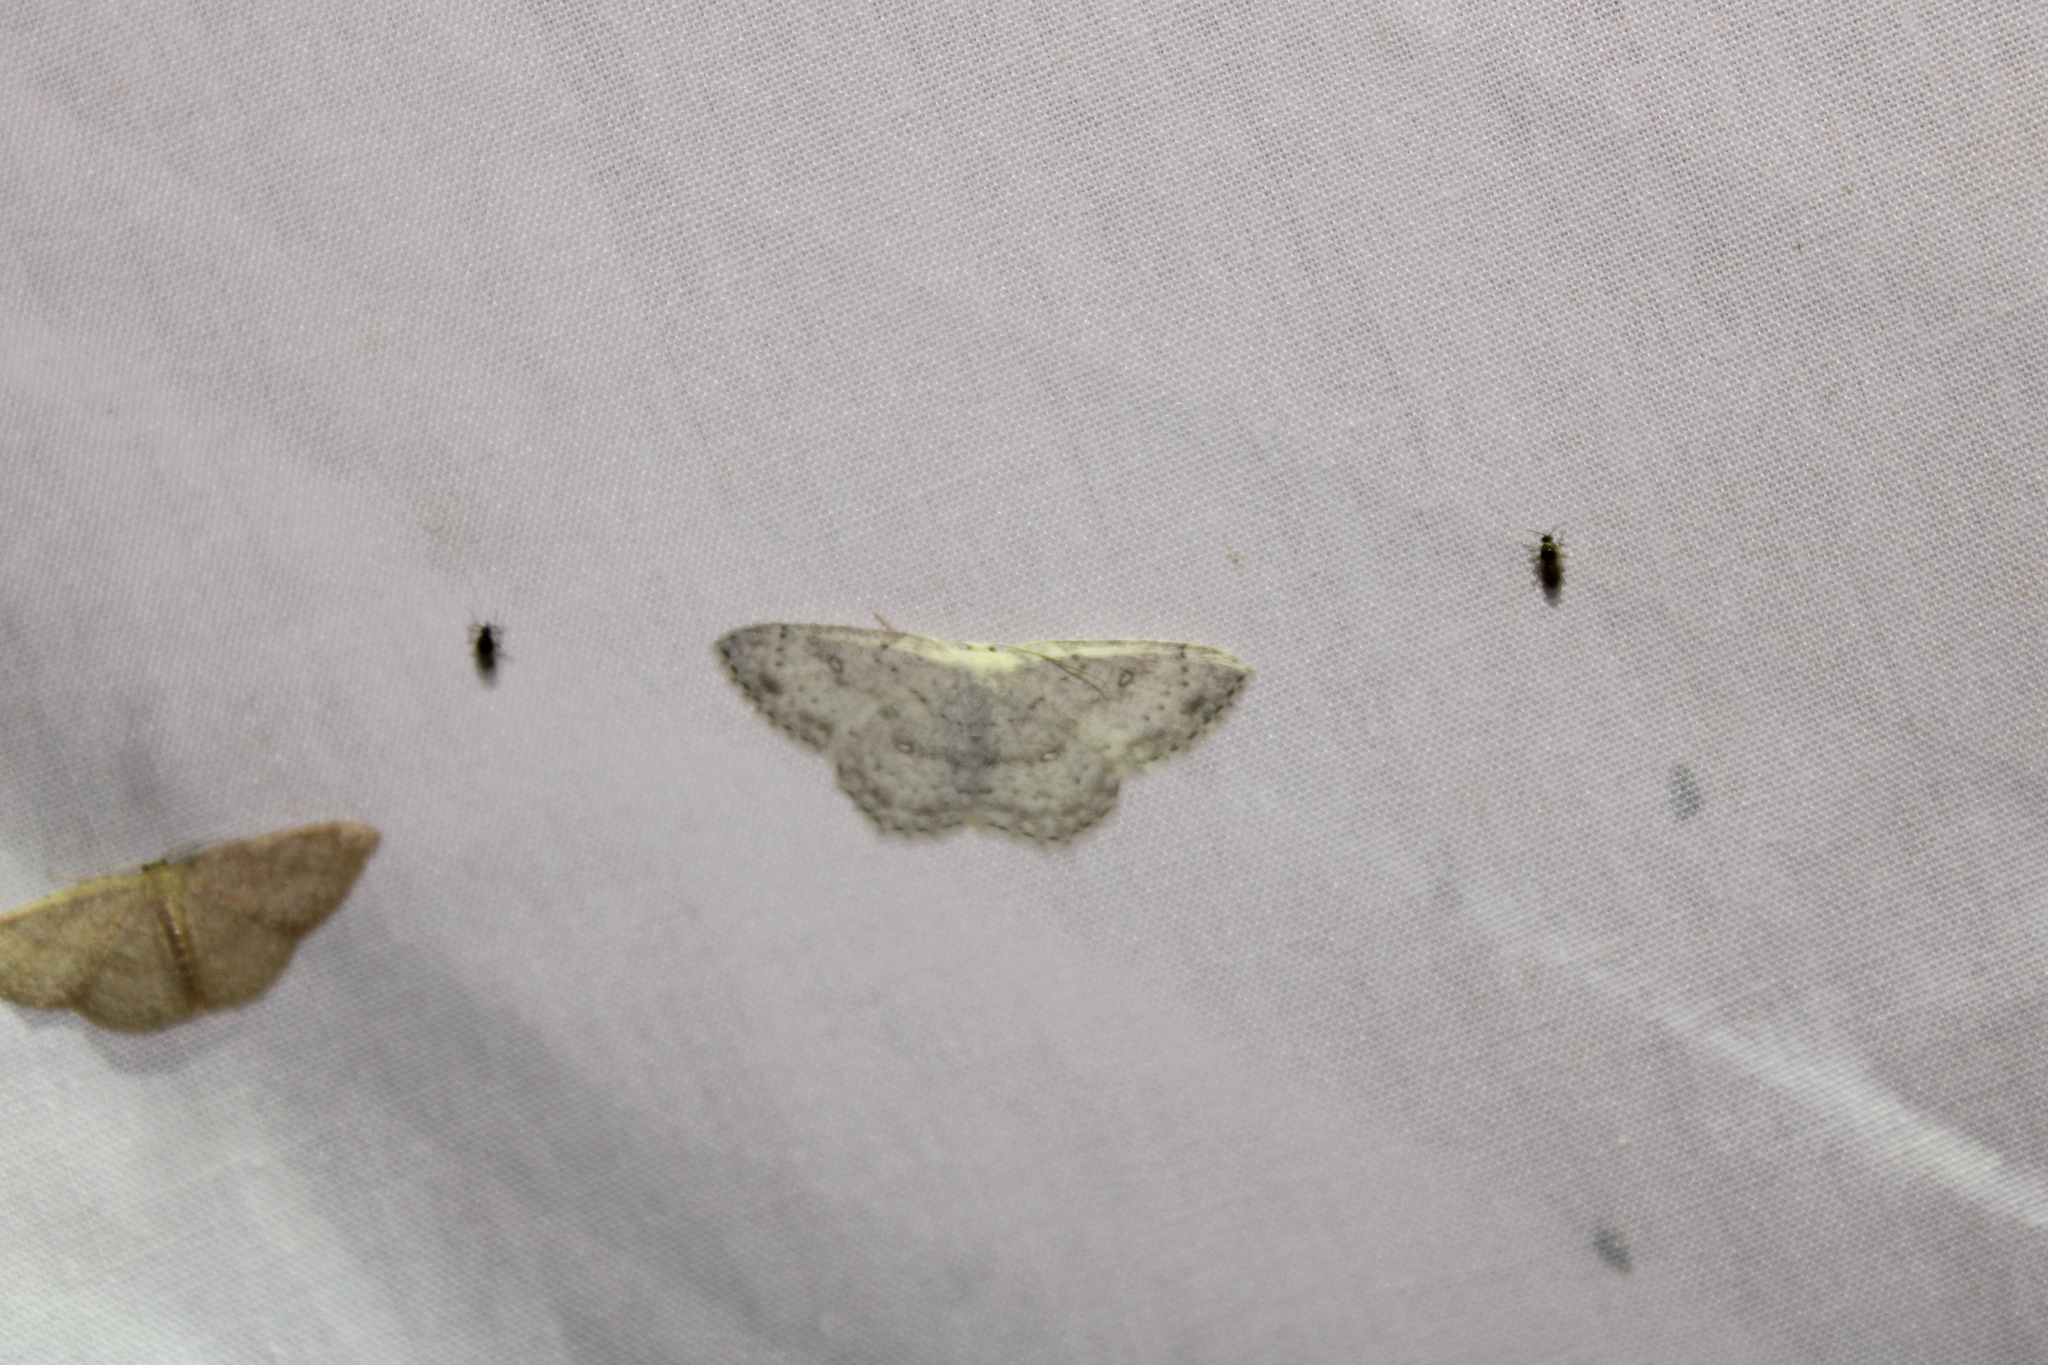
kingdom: Animalia
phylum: Arthropoda
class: Insecta
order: Lepidoptera
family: Geometridae
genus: Cyclophora
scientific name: Cyclophora pendulinaria
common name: Sweet fern geometer
